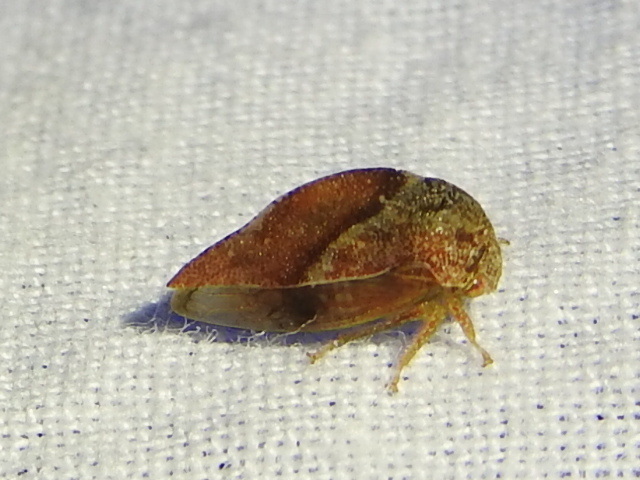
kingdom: Animalia
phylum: Arthropoda
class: Insecta
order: Hemiptera
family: Membracidae
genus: Cyrtolobus
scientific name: Cyrtolobus fuliginosa
